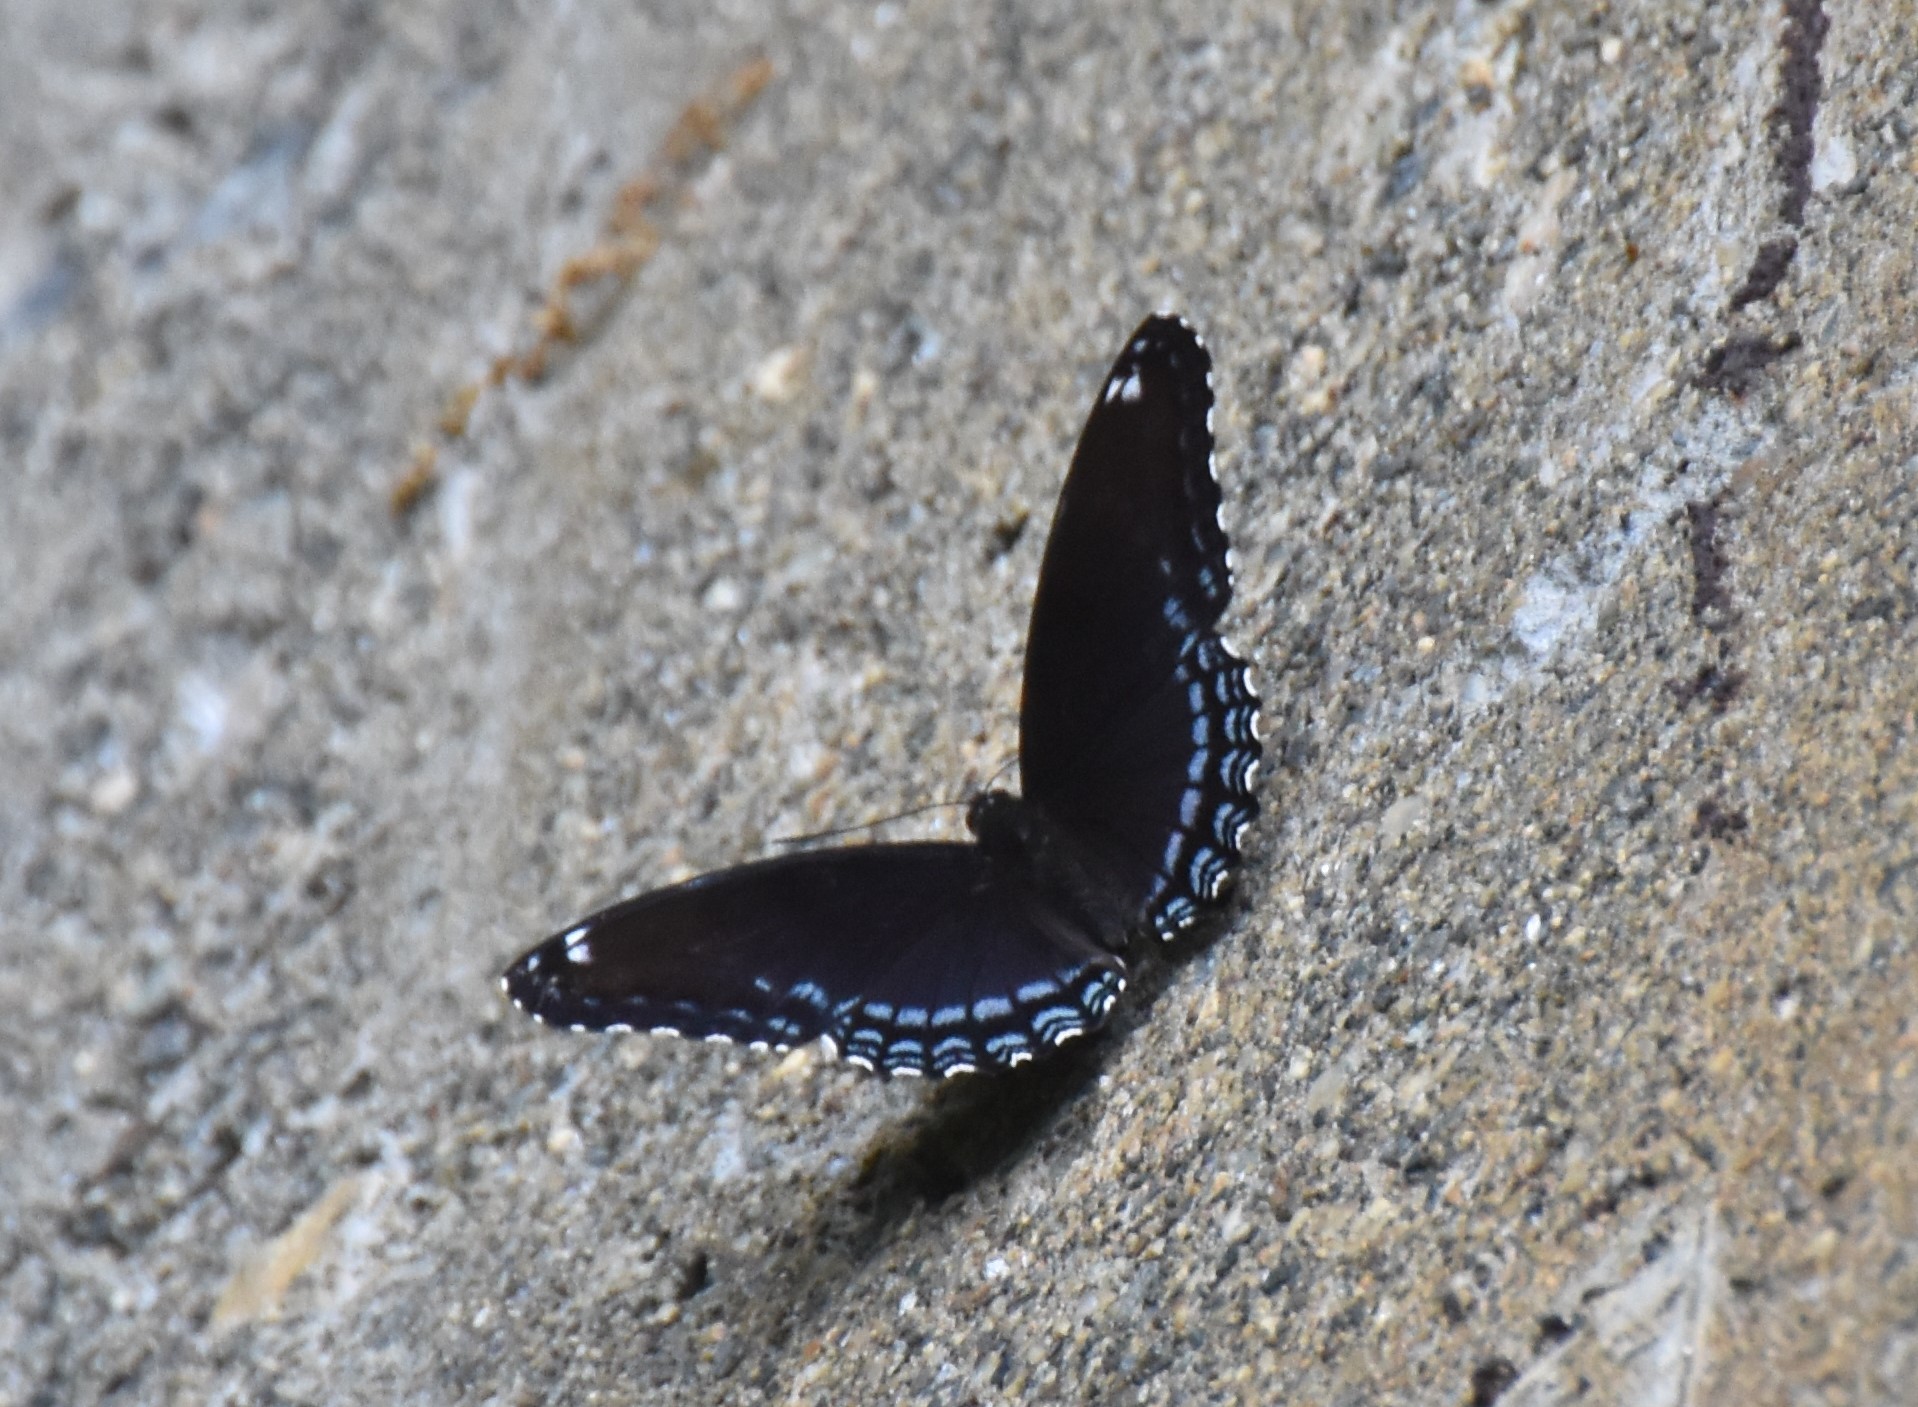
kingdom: Animalia
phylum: Arthropoda
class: Insecta
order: Lepidoptera
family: Nymphalidae
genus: Limenitis
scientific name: Limenitis
